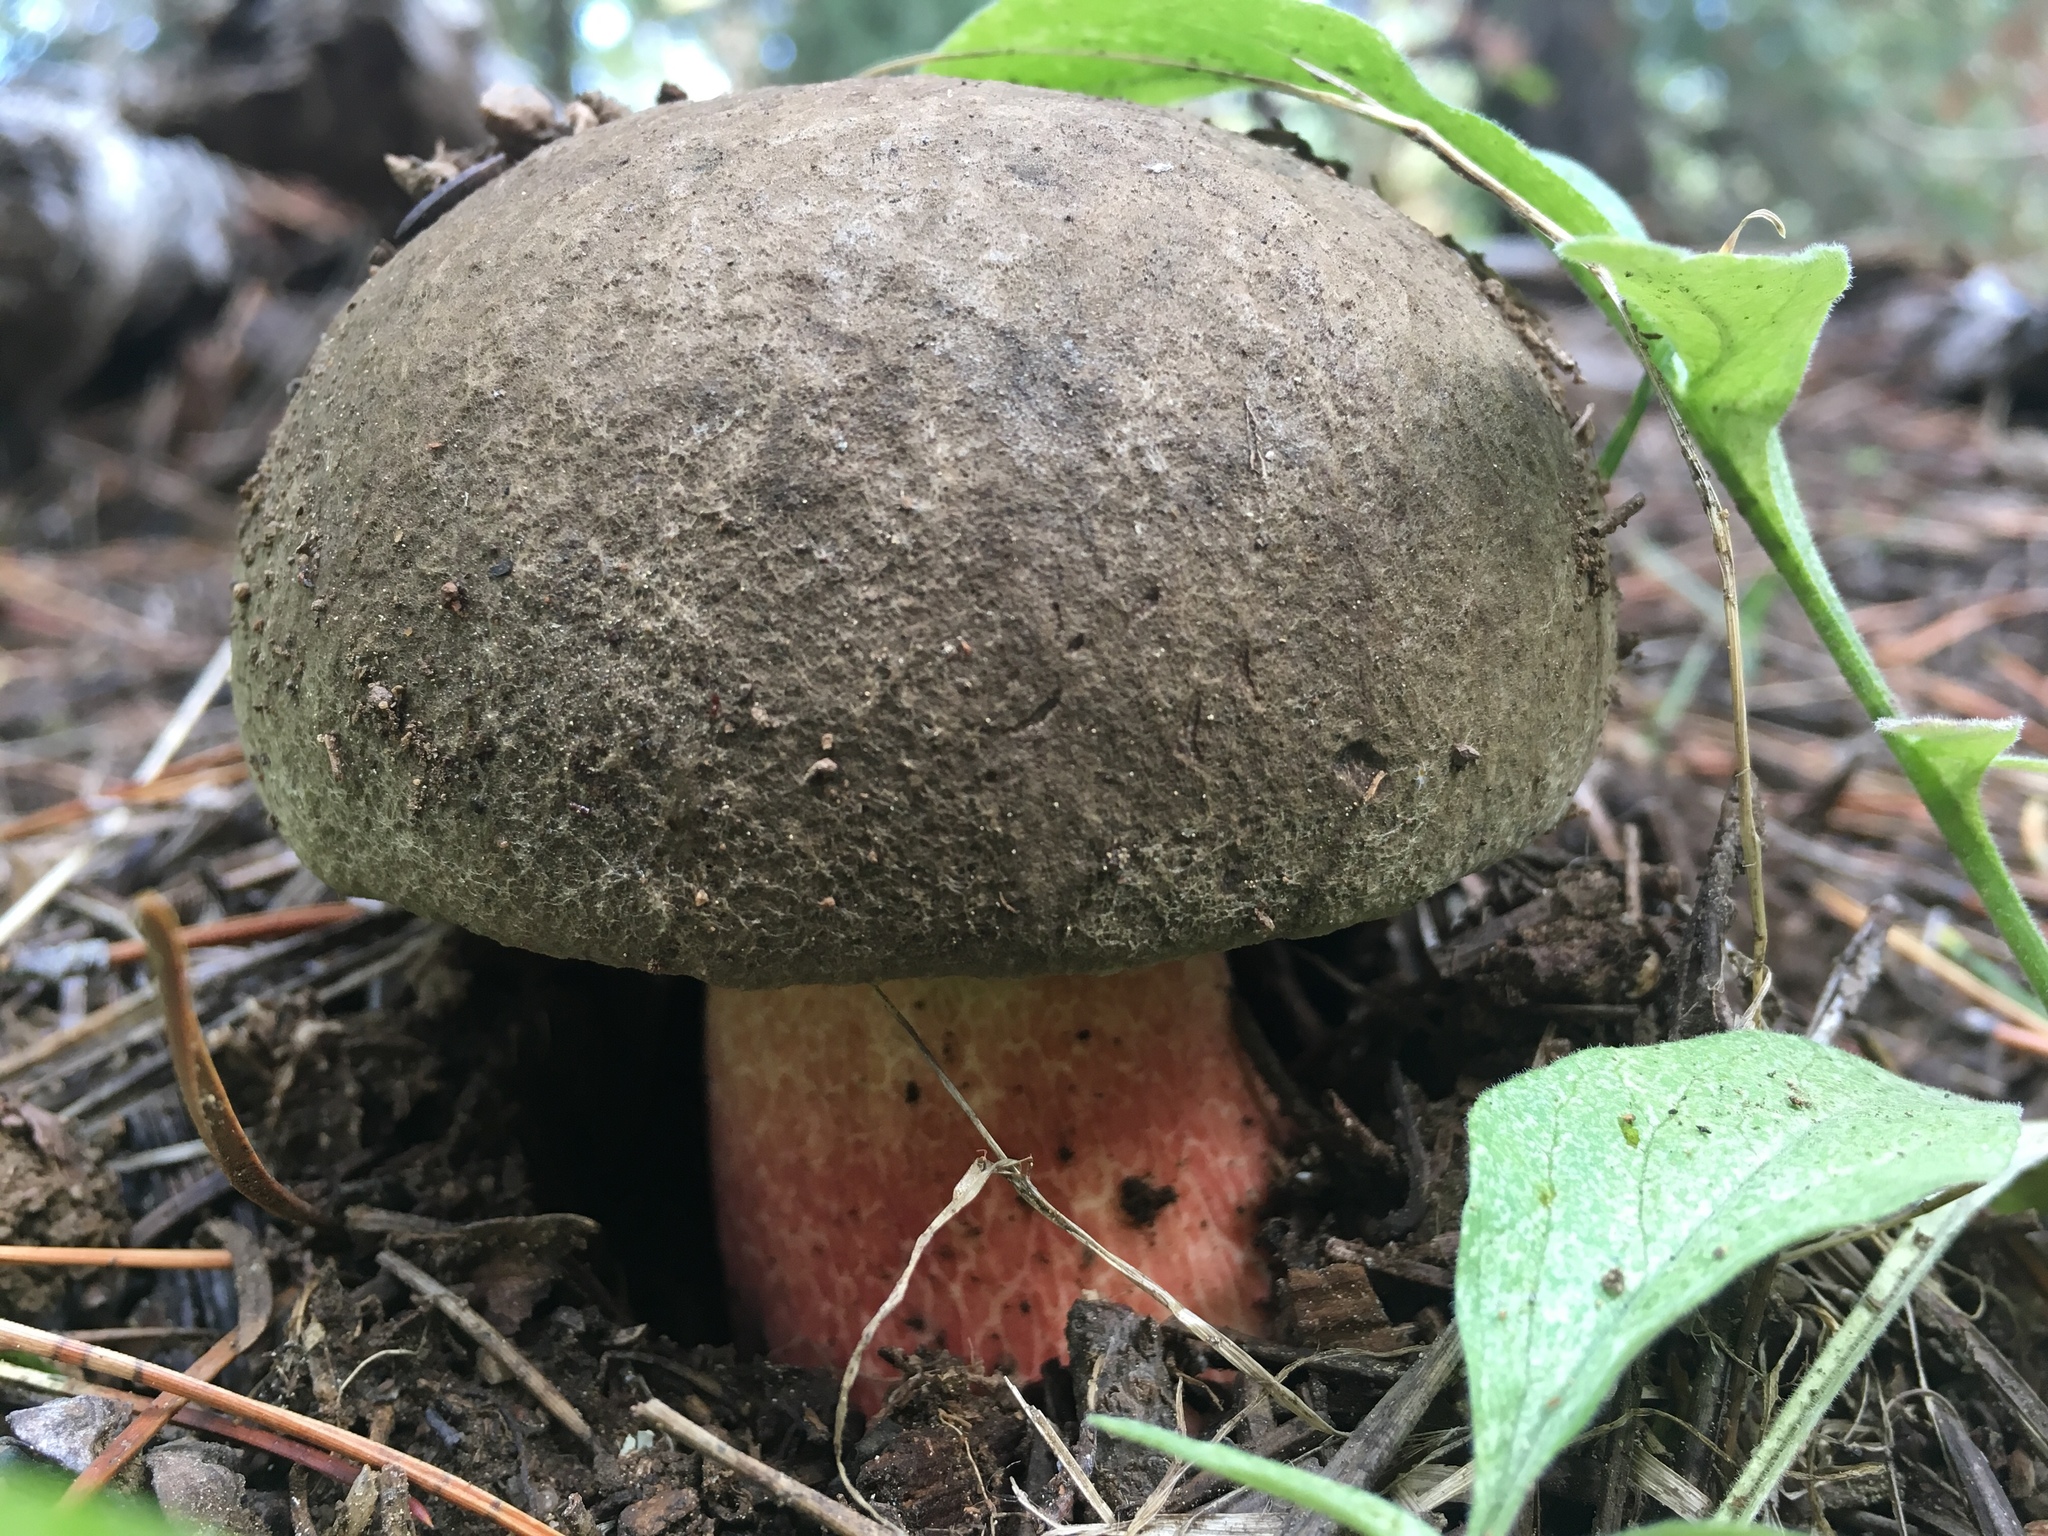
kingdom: Fungi
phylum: Basidiomycota
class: Agaricomycetes
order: Boletales
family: Boletaceae
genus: Caloboletus
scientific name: Caloboletus frustosus
